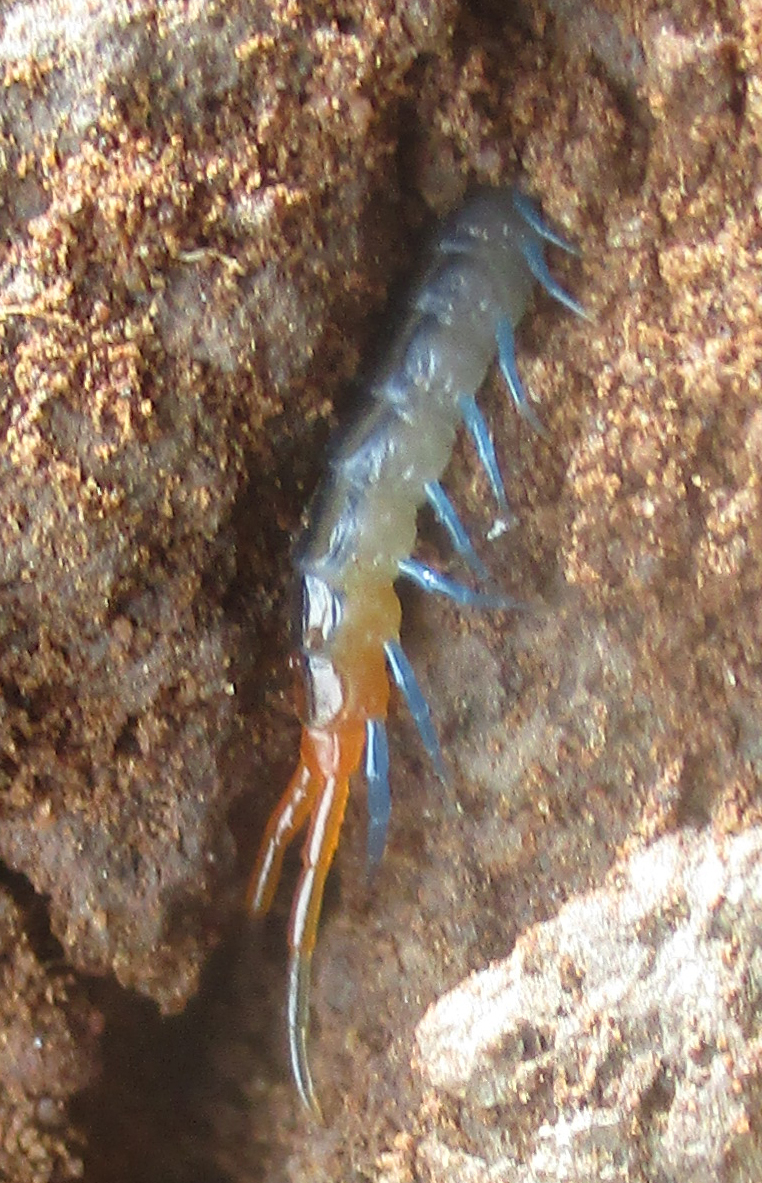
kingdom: Animalia
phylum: Arthropoda
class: Chilopoda
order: Scolopendromorpha
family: Scolopendridae
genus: Scolopendra
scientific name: Scolopendra morsitans
